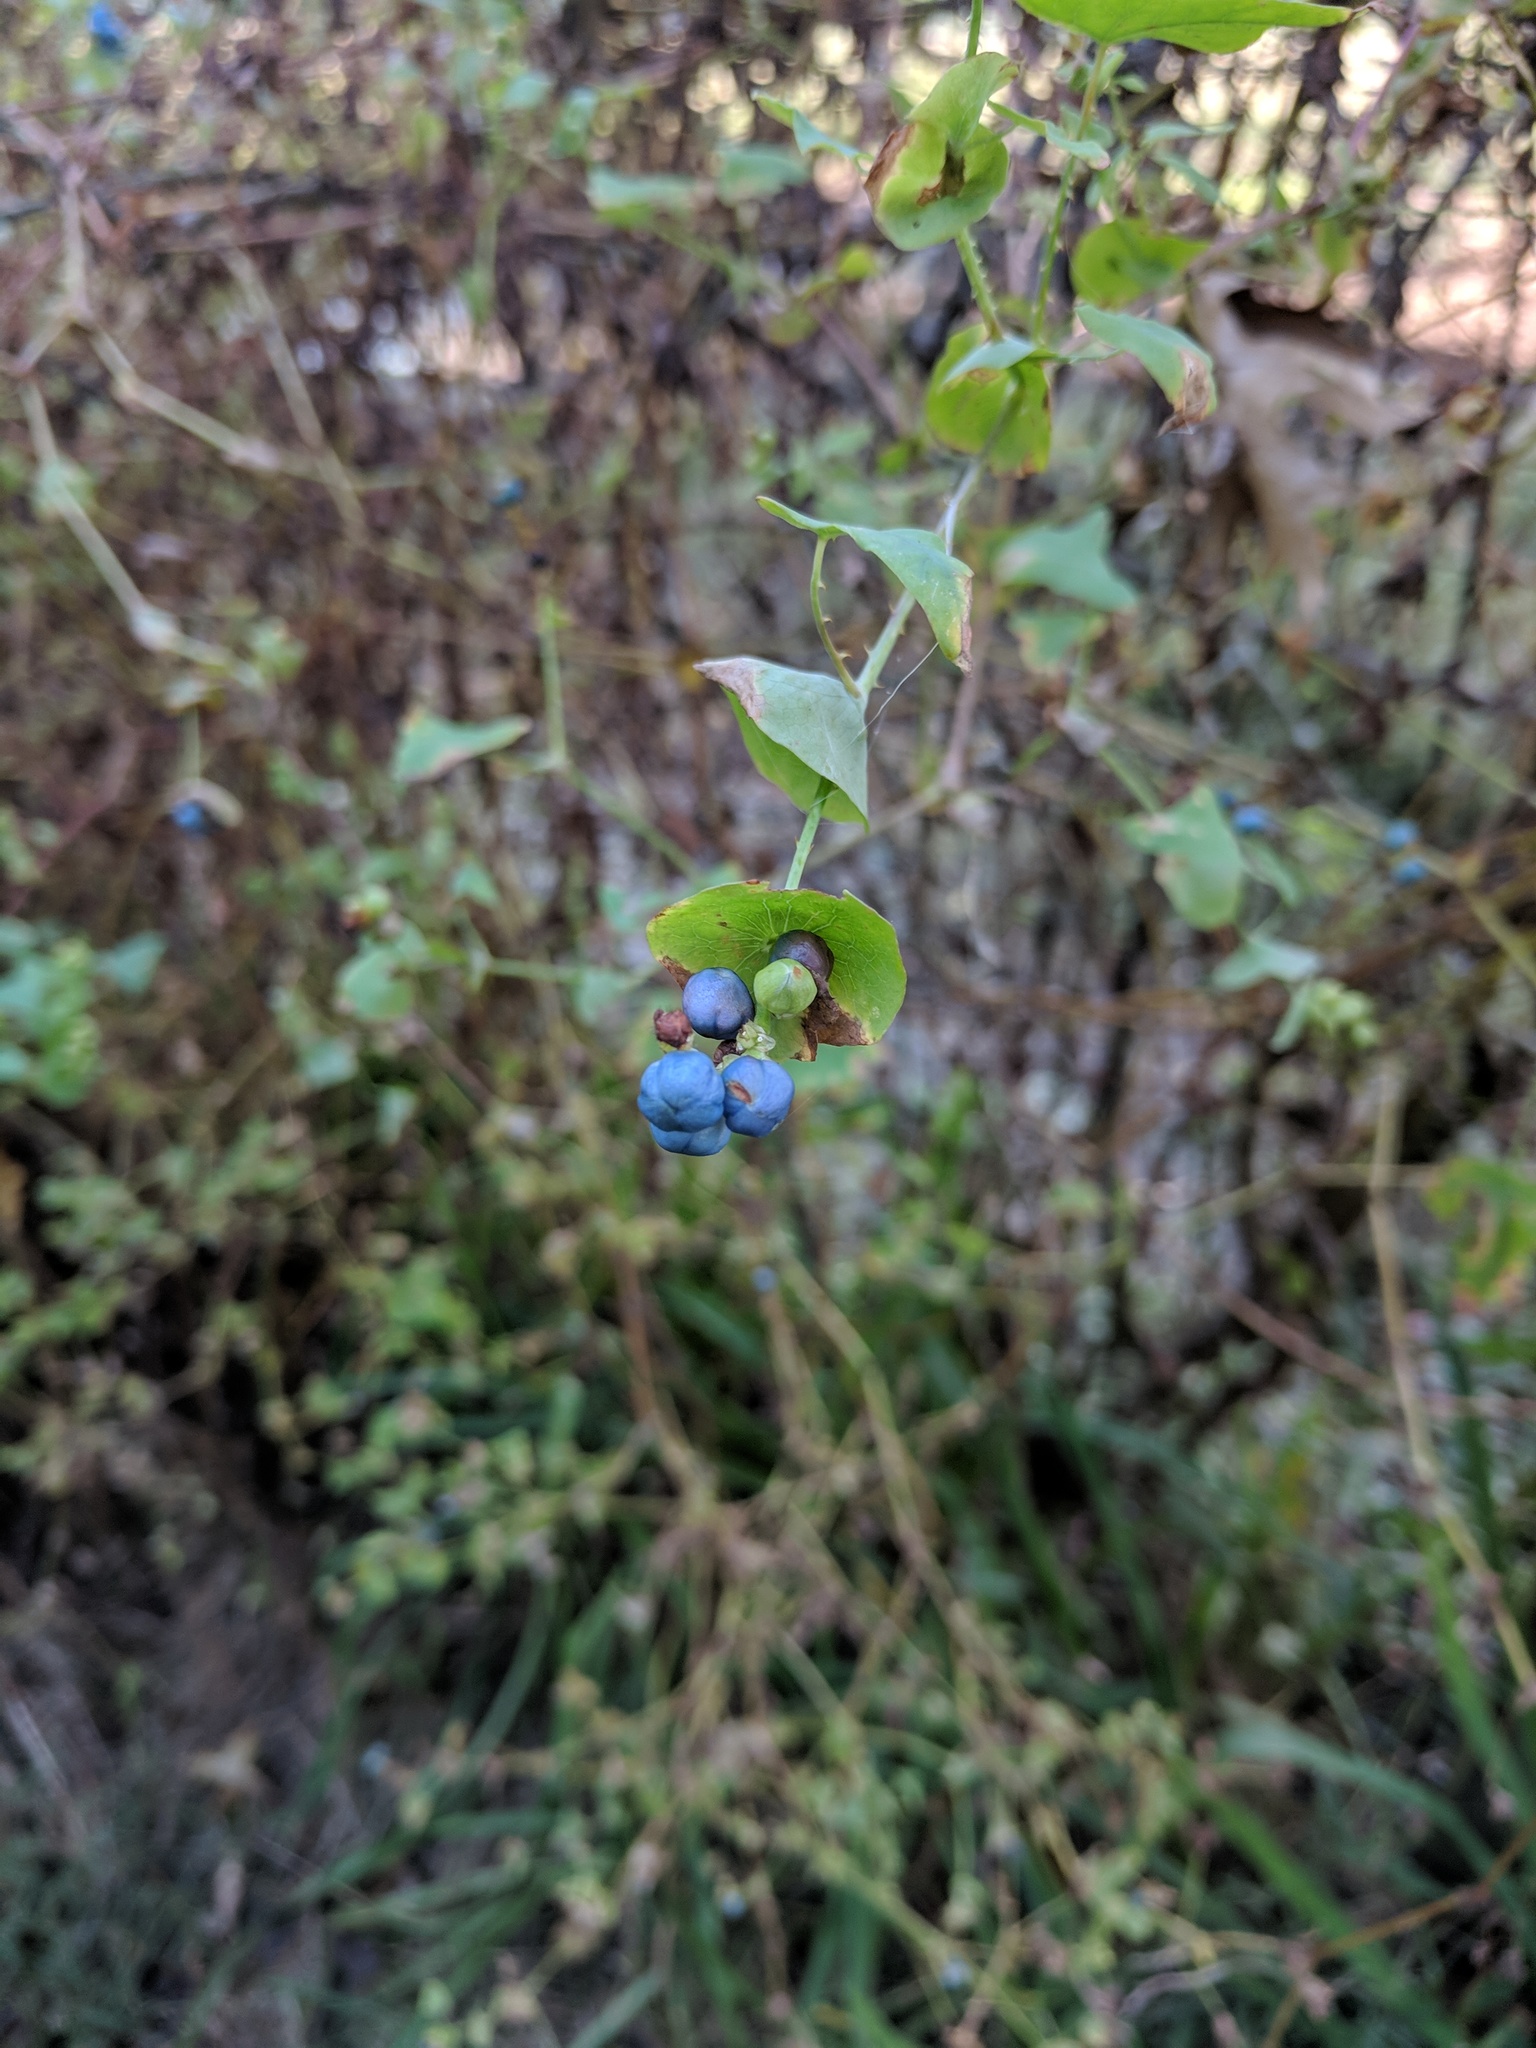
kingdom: Plantae
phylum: Tracheophyta
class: Magnoliopsida
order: Caryophyllales
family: Polygonaceae
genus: Persicaria
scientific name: Persicaria perfoliata
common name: Asiatic tearthumb
